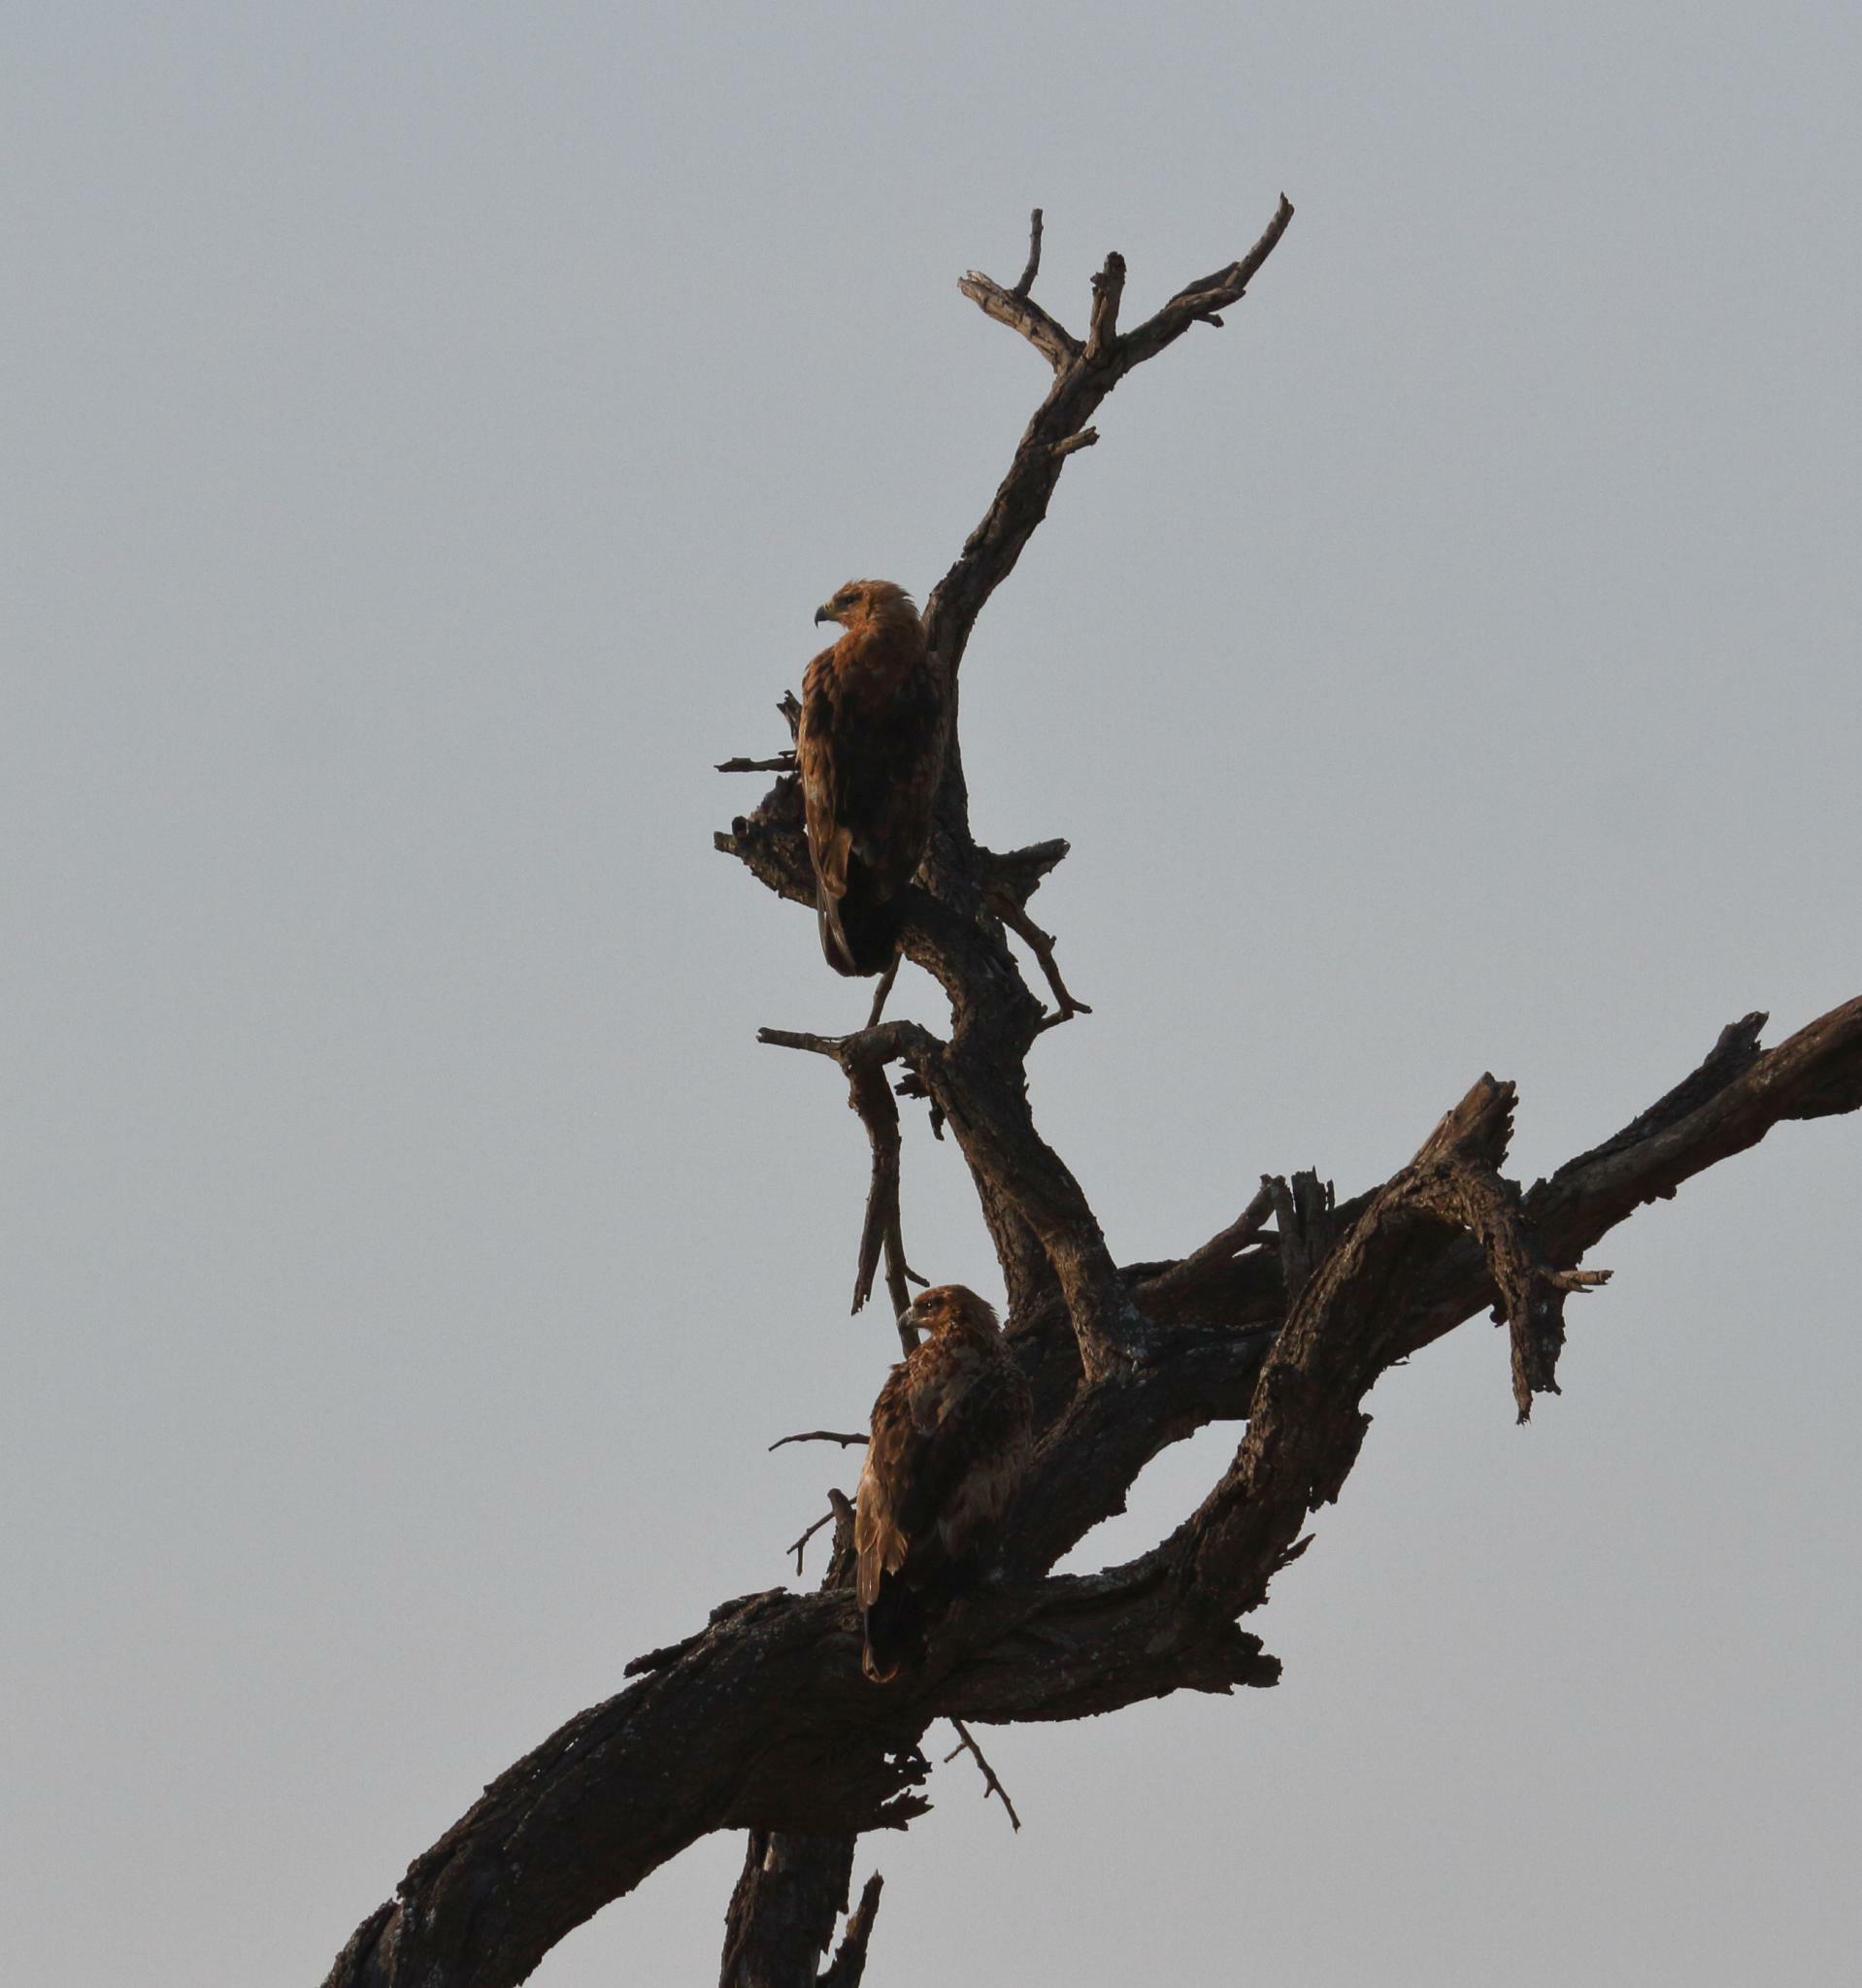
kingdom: Animalia
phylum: Chordata
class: Aves
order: Accipitriformes
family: Accipitridae
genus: Aquila
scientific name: Aquila rapax
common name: Tawny eagle
